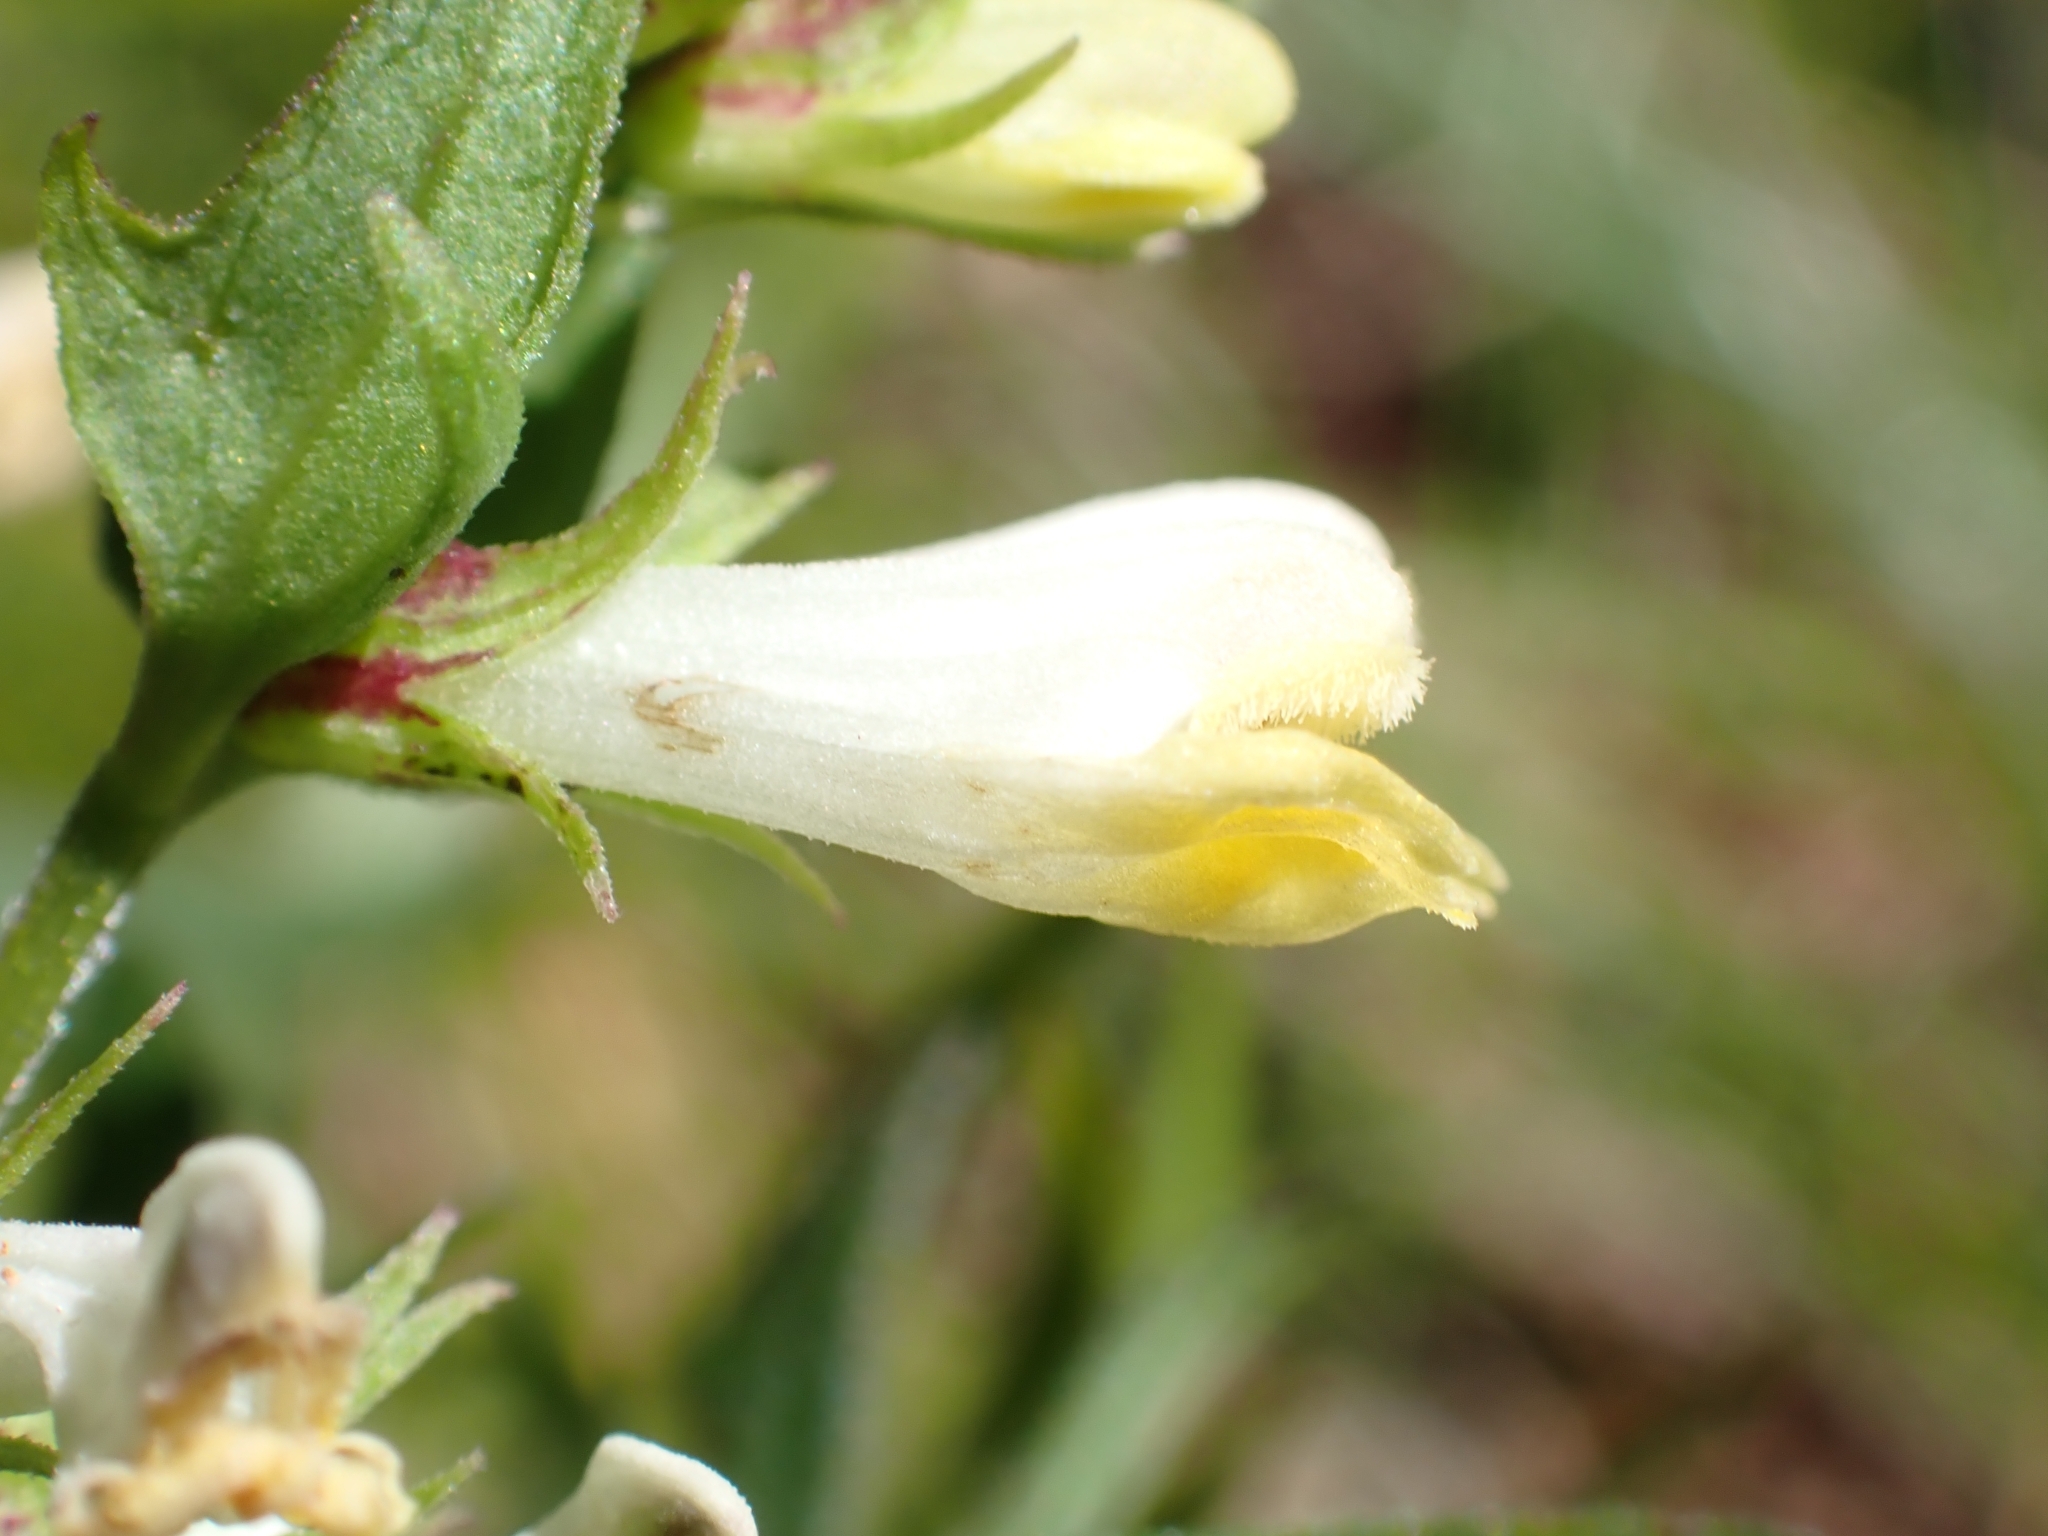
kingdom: Plantae
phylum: Tracheophyta
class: Magnoliopsida
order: Lamiales
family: Orobanchaceae
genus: Melampyrum
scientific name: Melampyrum pratense
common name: Common cow-wheat
